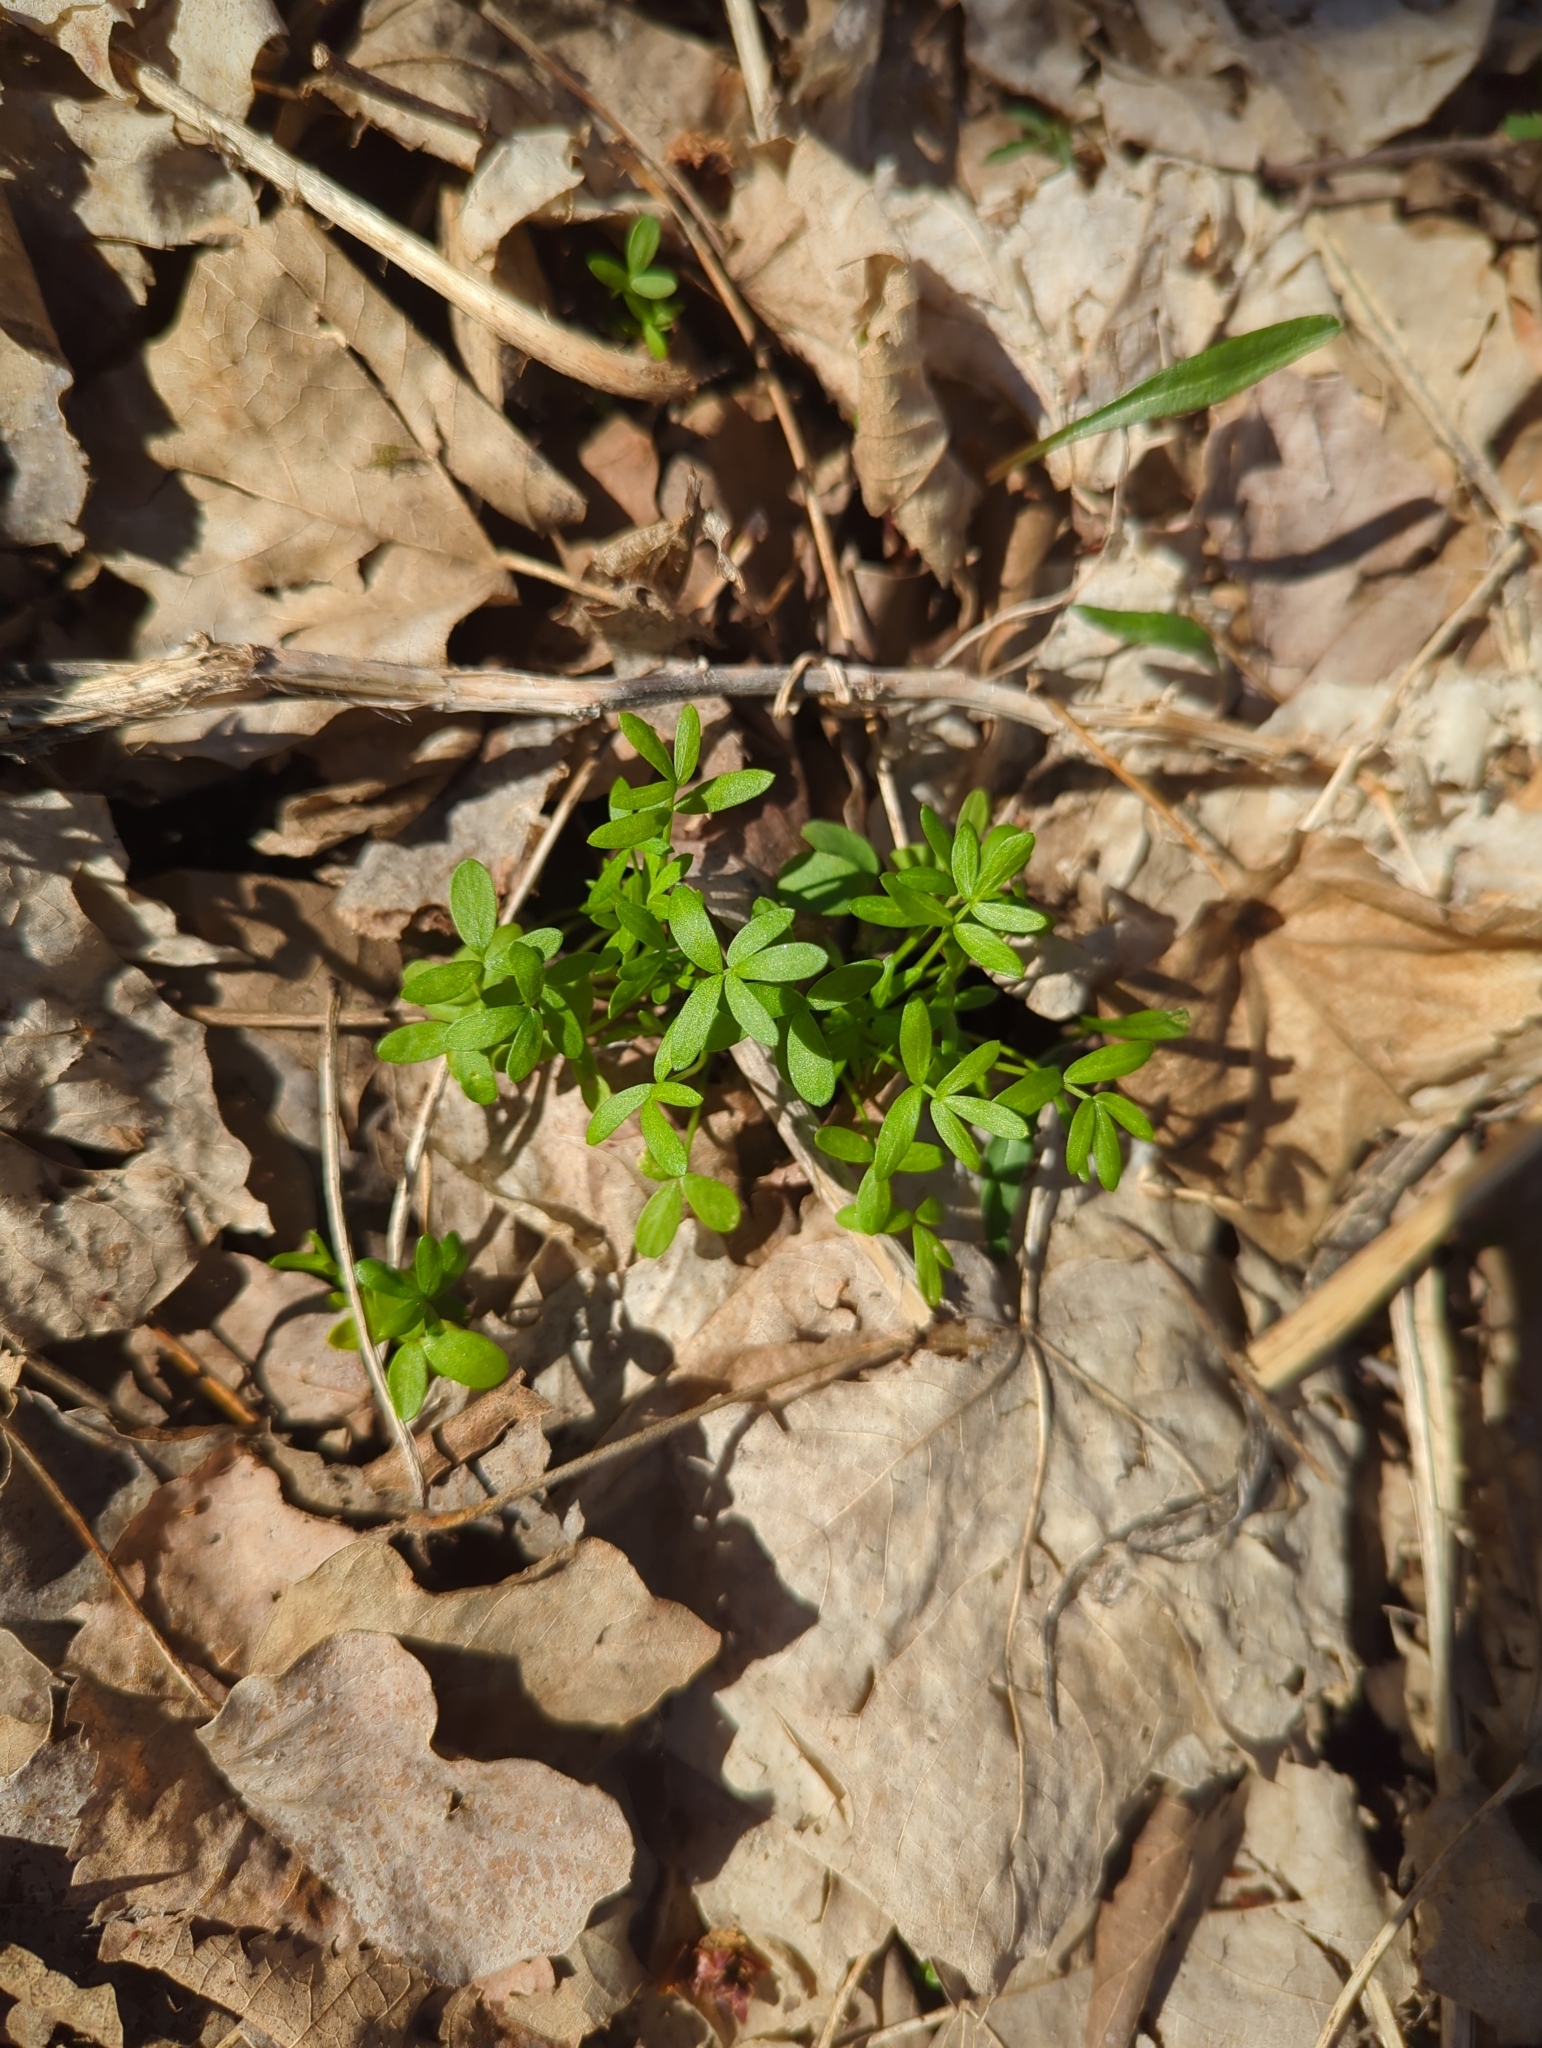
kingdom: Plantae
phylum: Tracheophyta
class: Magnoliopsida
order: Brassicales
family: Limnanthaceae
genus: Floerkea
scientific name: Floerkea proserpinacoides
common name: False mermaid
